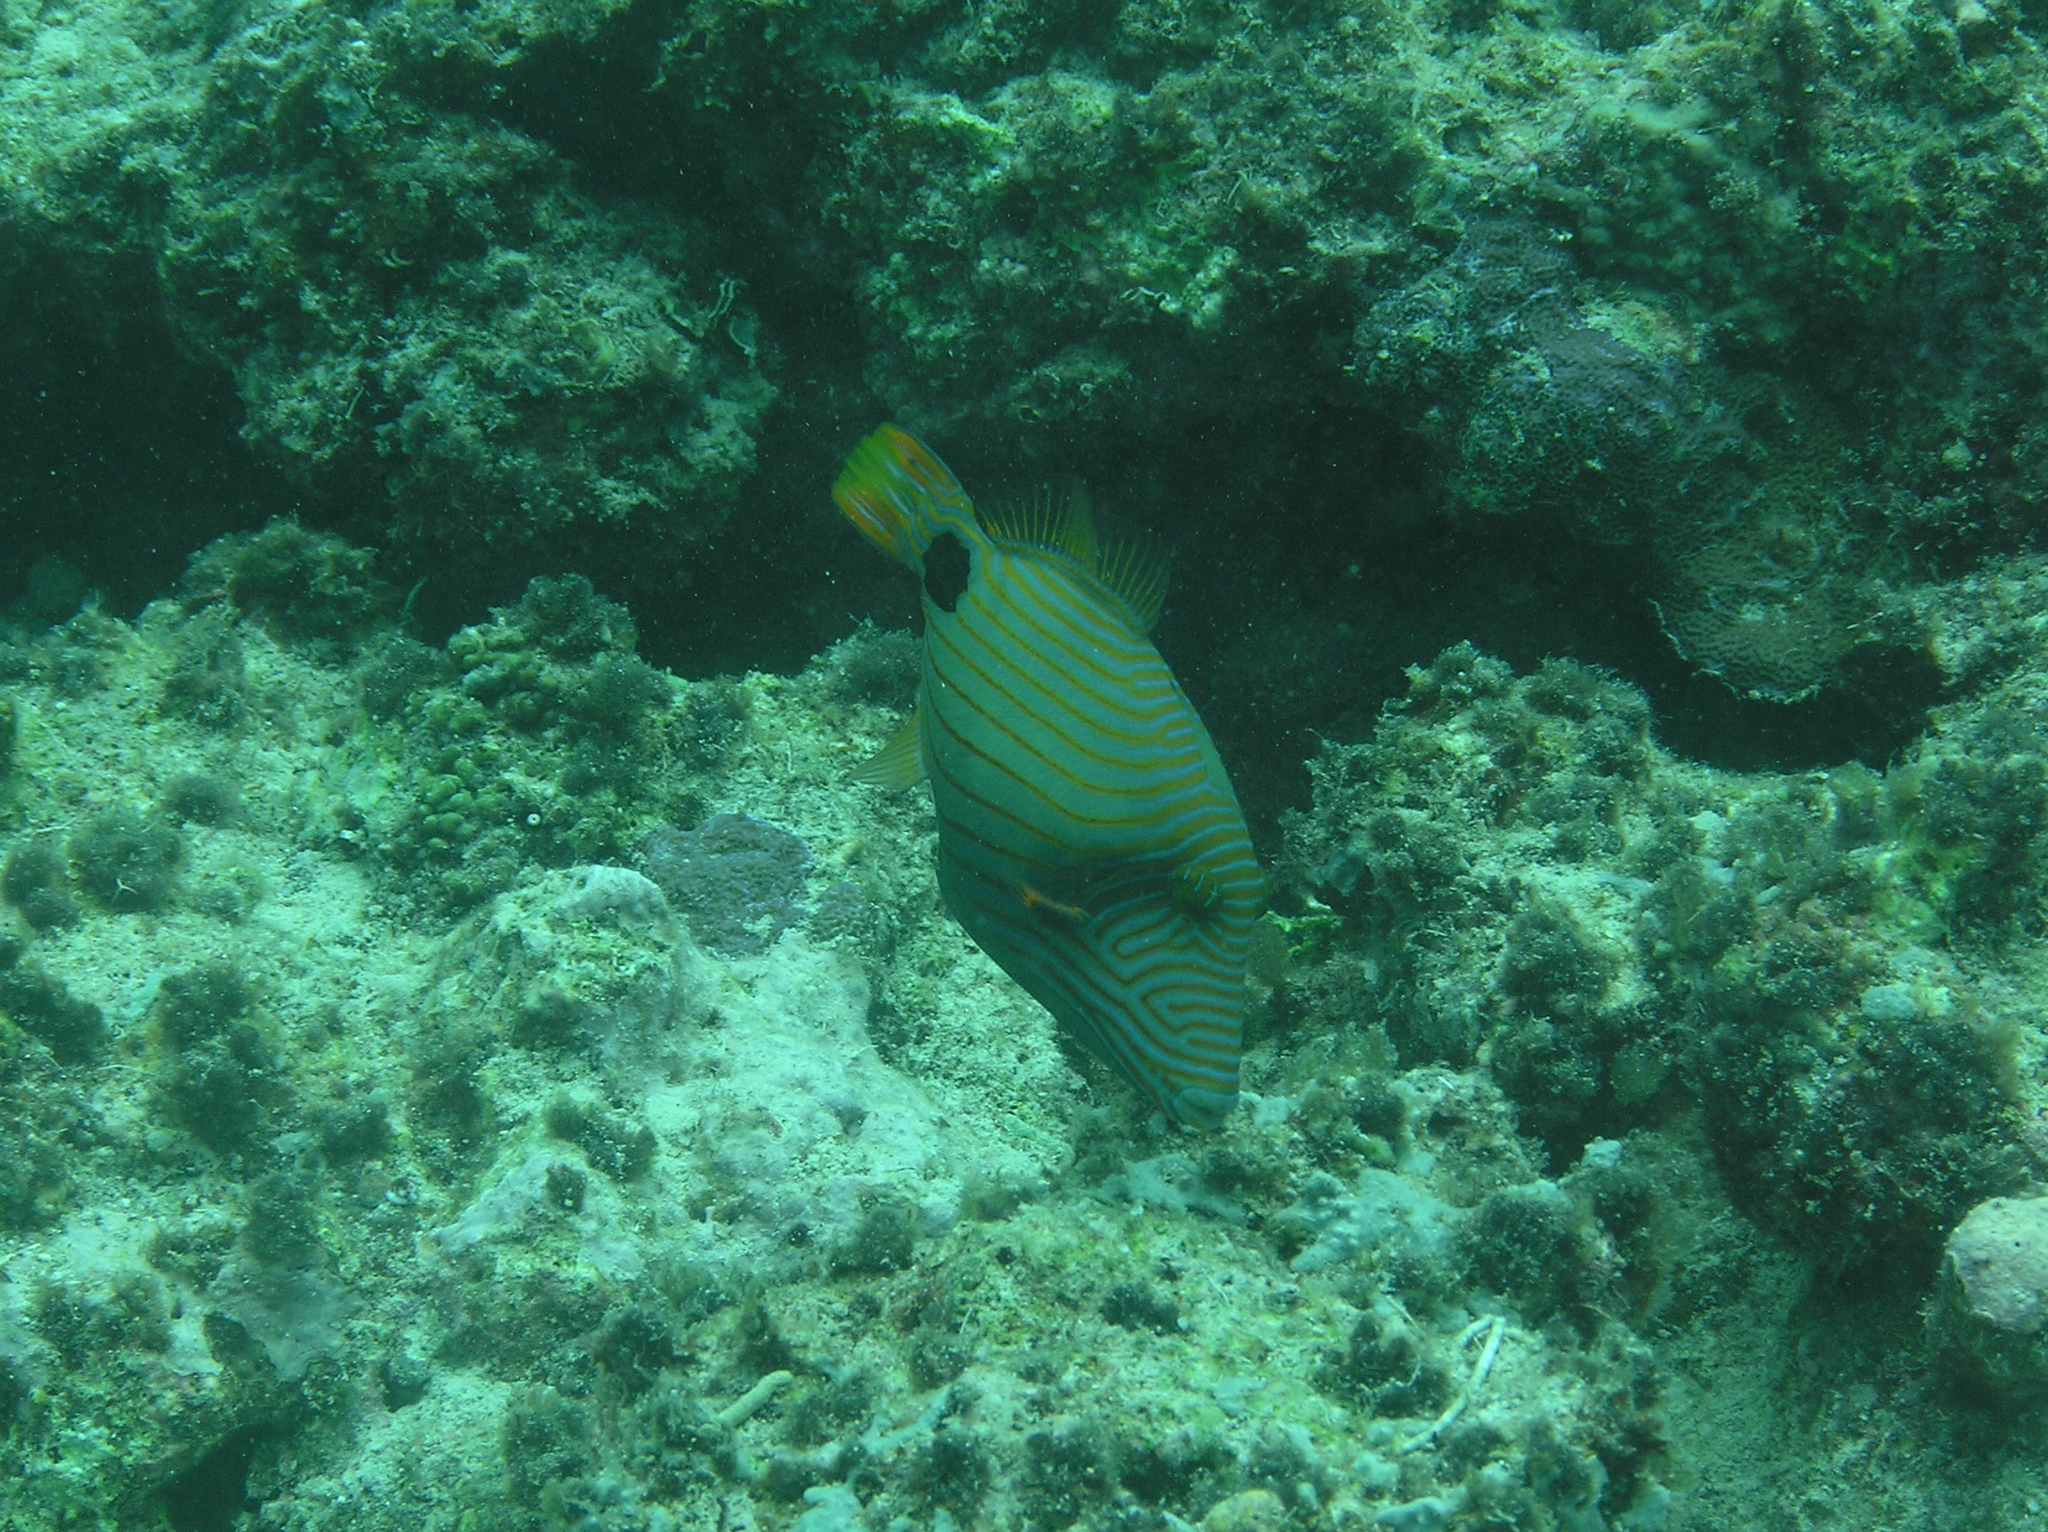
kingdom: Animalia
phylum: Chordata
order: Tetraodontiformes
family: Balistidae
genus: Balistapus
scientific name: Balistapus undulatus
